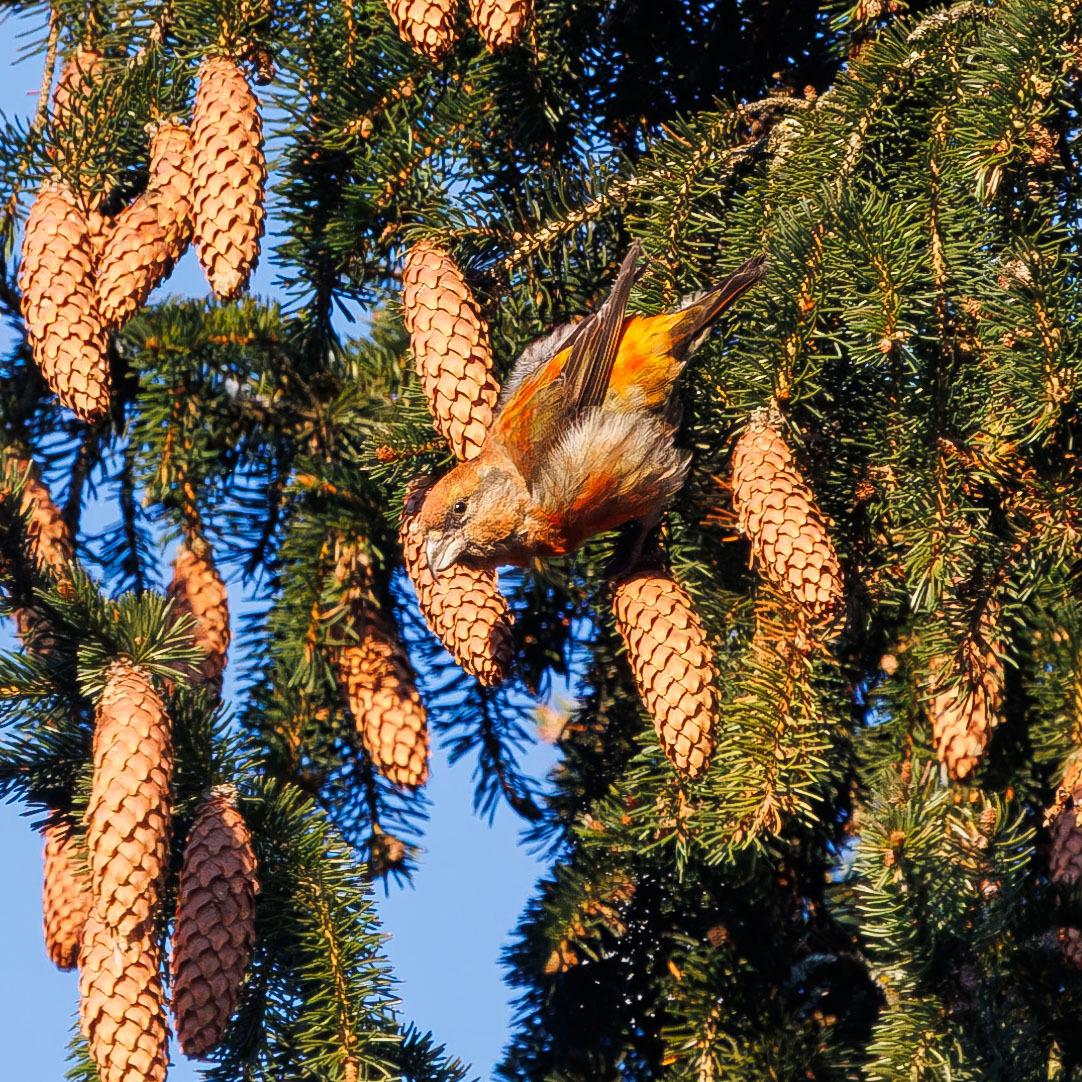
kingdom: Animalia
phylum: Chordata
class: Aves
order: Passeriformes
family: Fringillidae
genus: Loxia
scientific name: Loxia curvirostra
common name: Red crossbill
